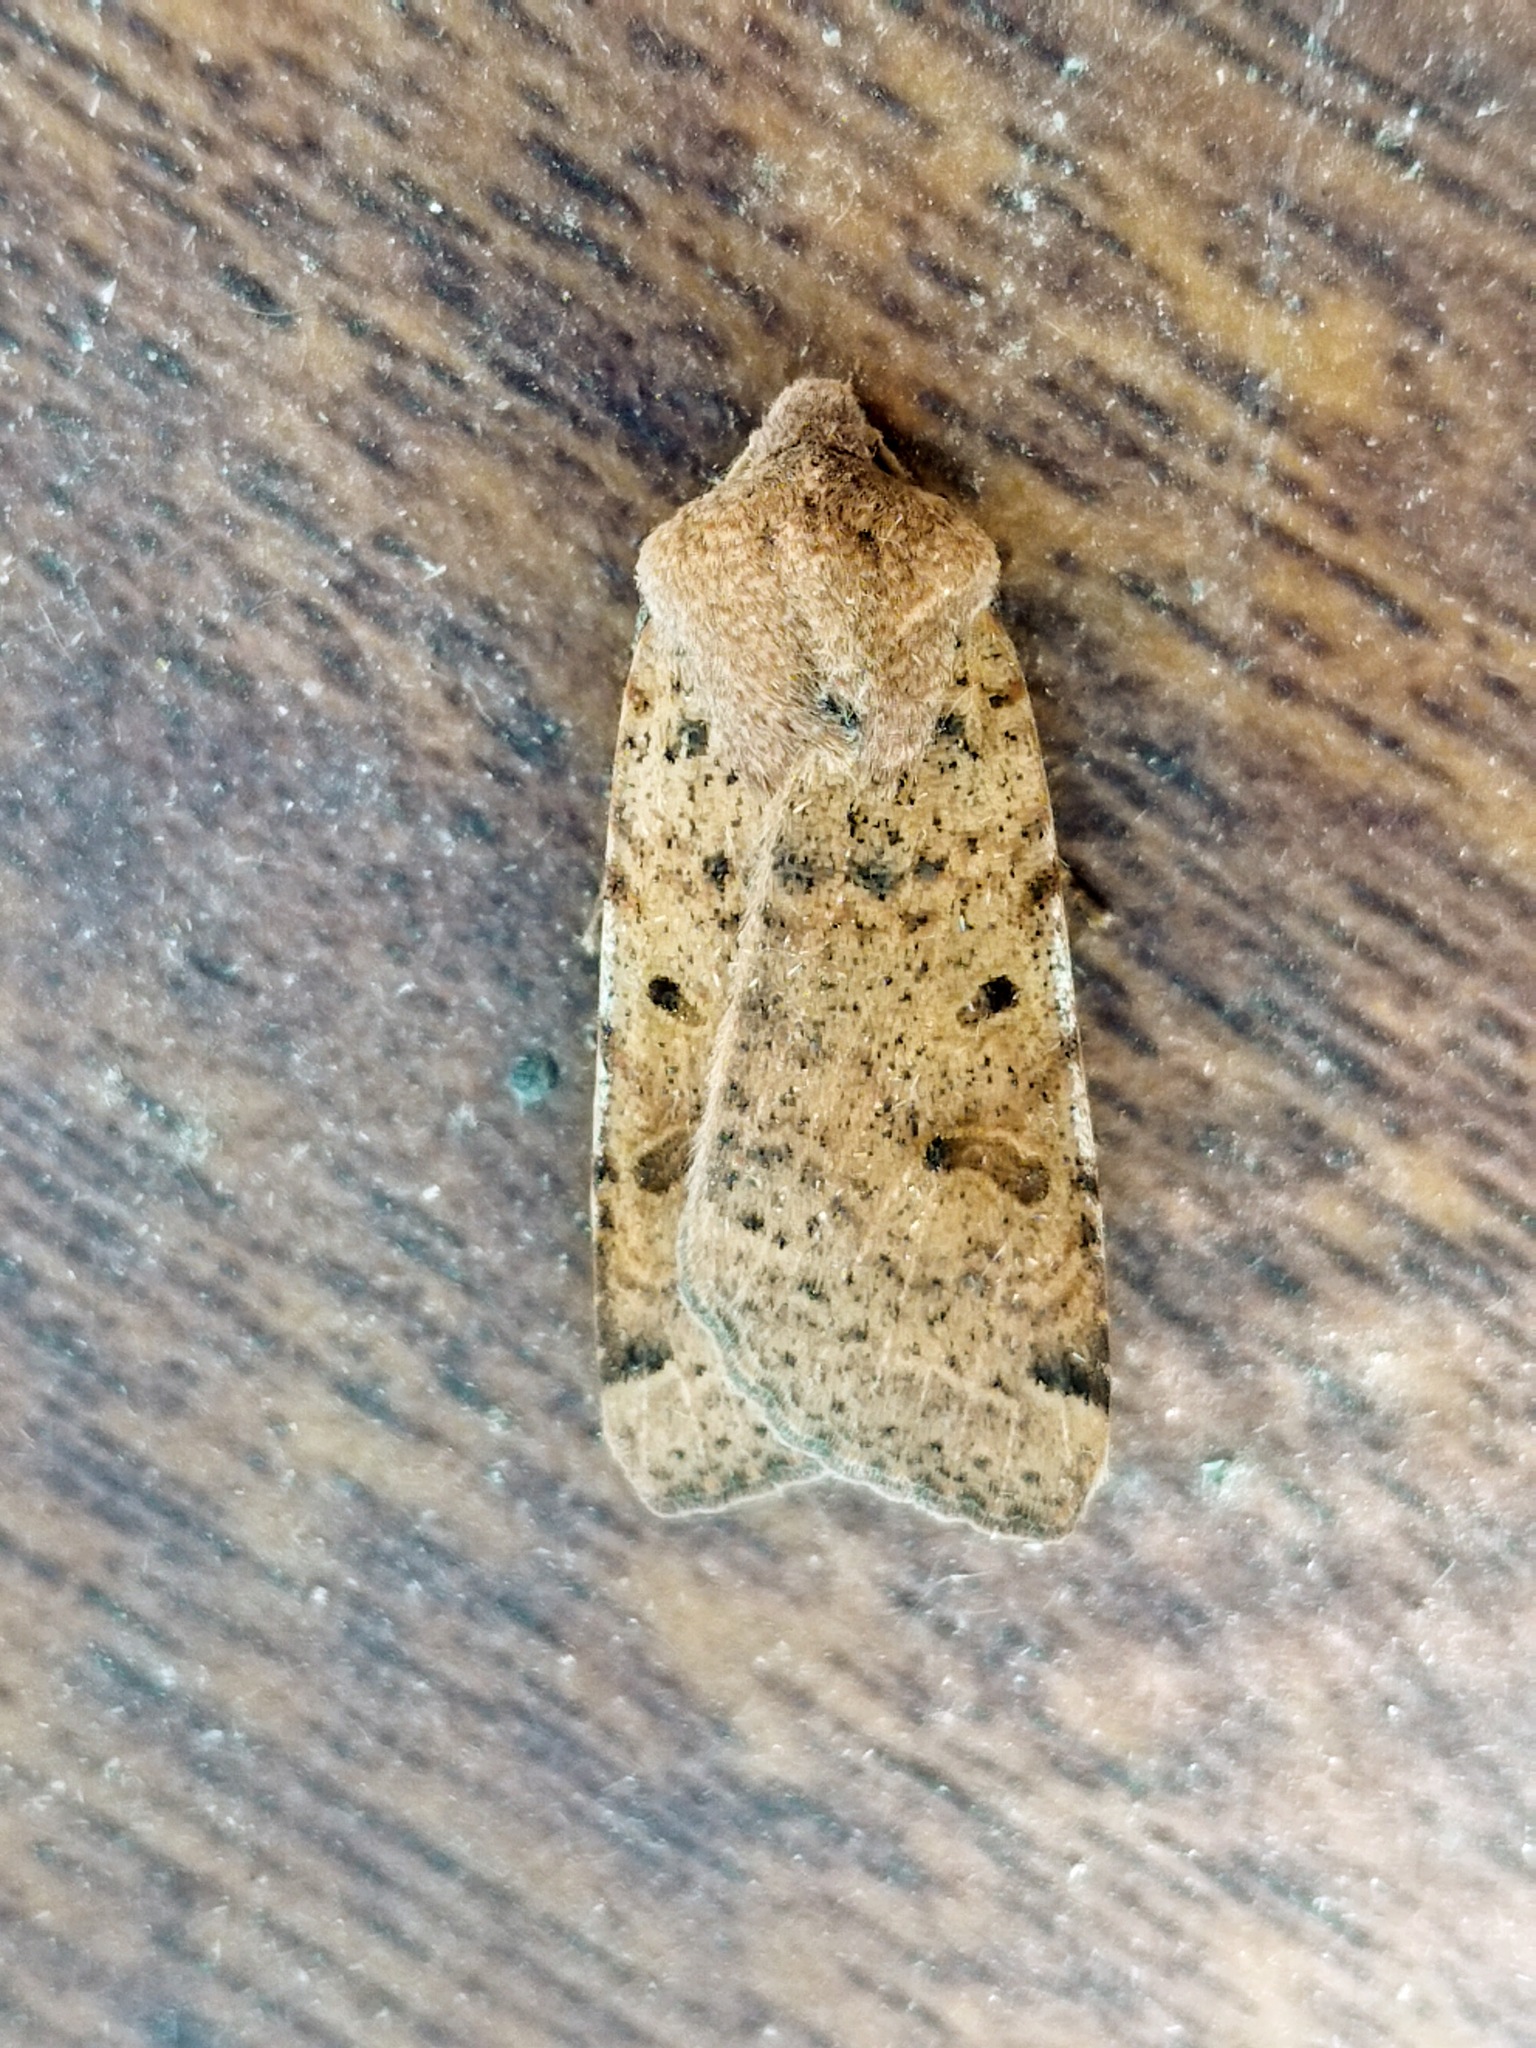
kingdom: Animalia
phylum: Arthropoda
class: Insecta
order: Lepidoptera
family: Noctuidae
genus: Agrochola
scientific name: Agrochola lychnidis
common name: Beaded chestnut
